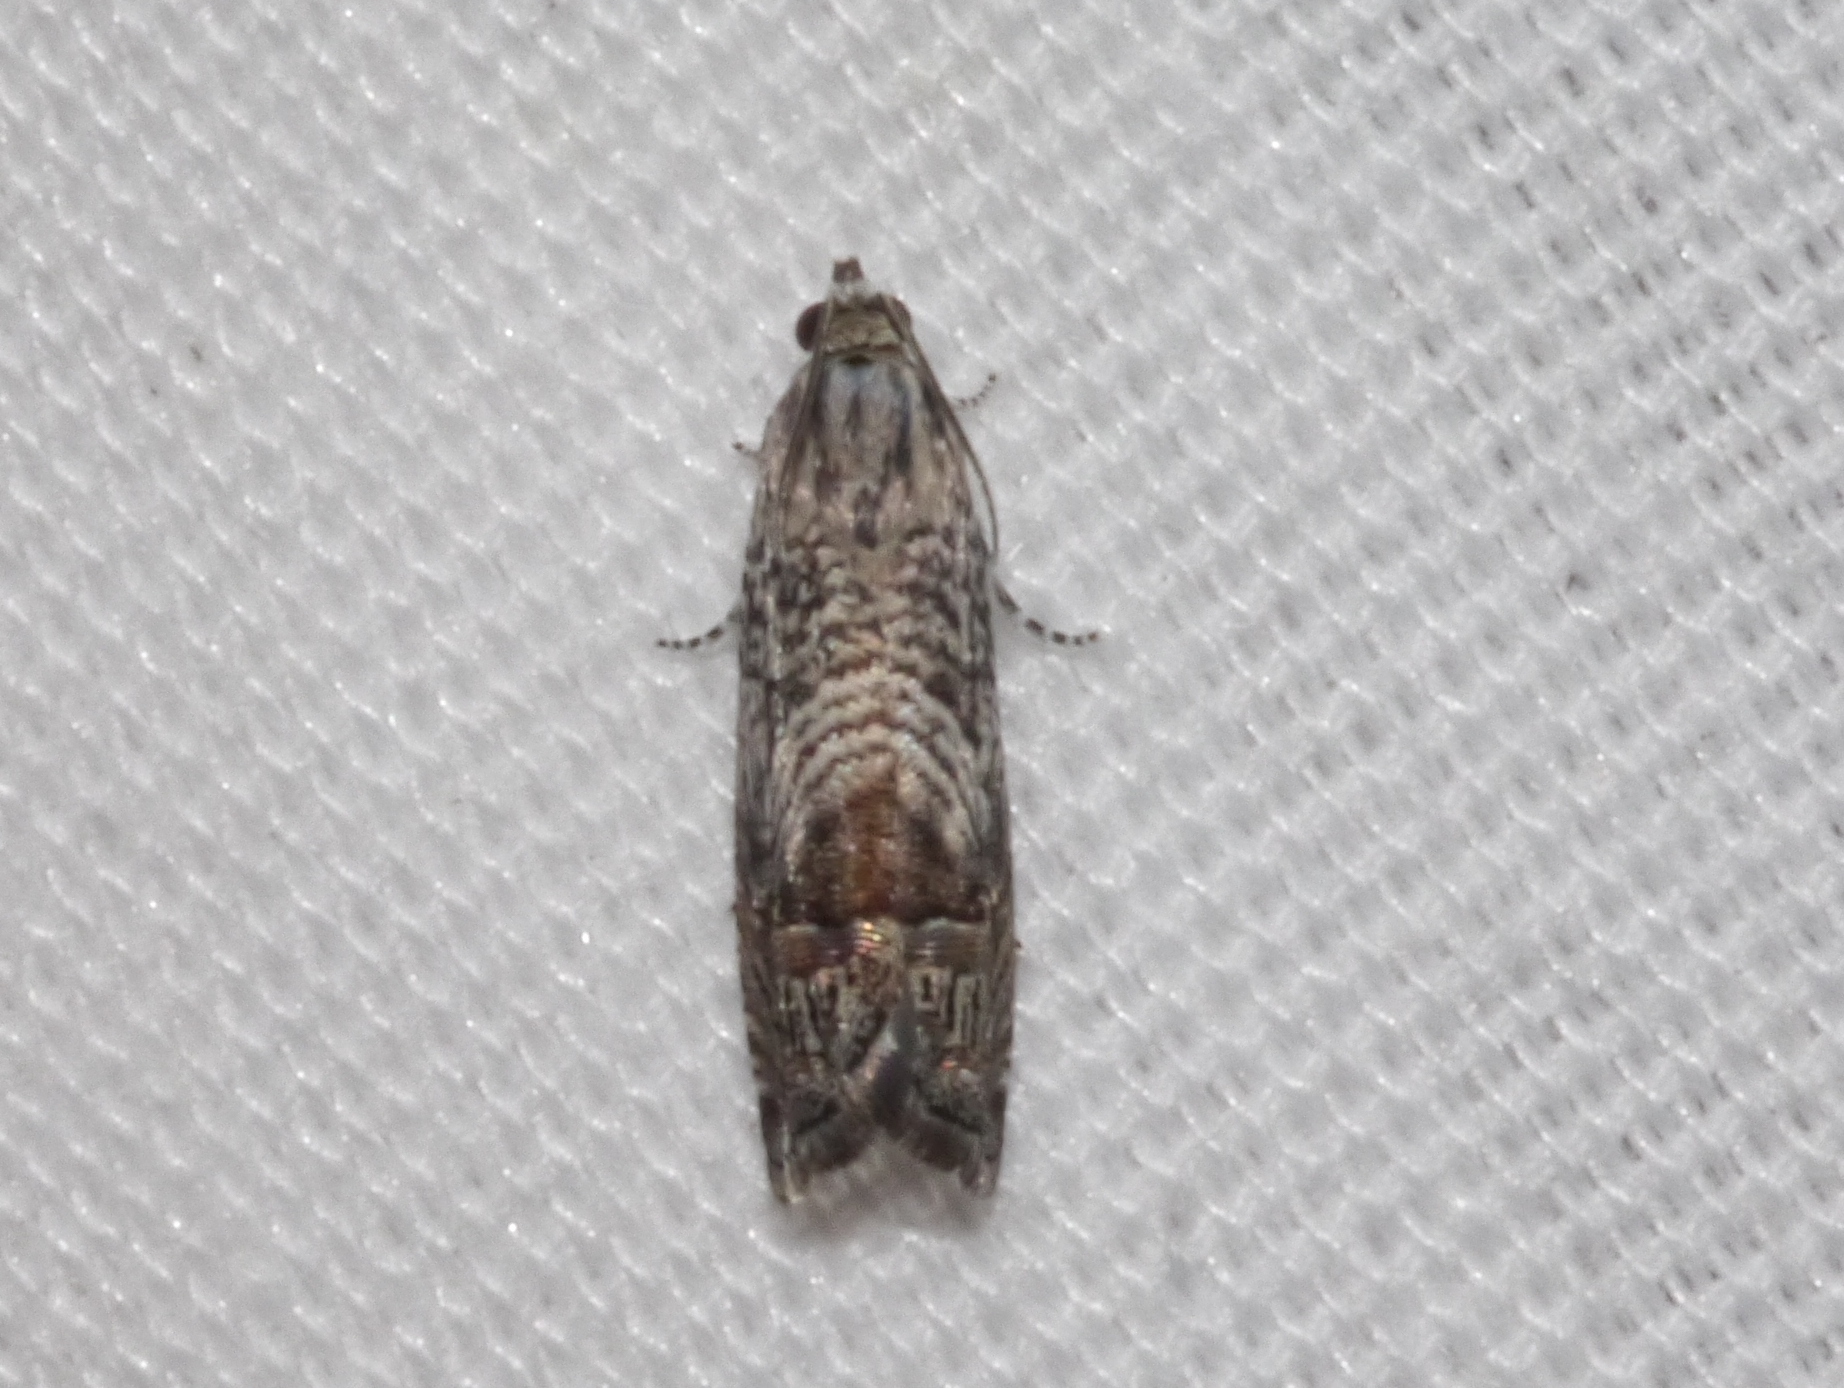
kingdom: Animalia
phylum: Arthropoda
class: Insecta
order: Lepidoptera
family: Tortricidae
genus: Ofatulena
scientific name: Ofatulena duodecemstriata
